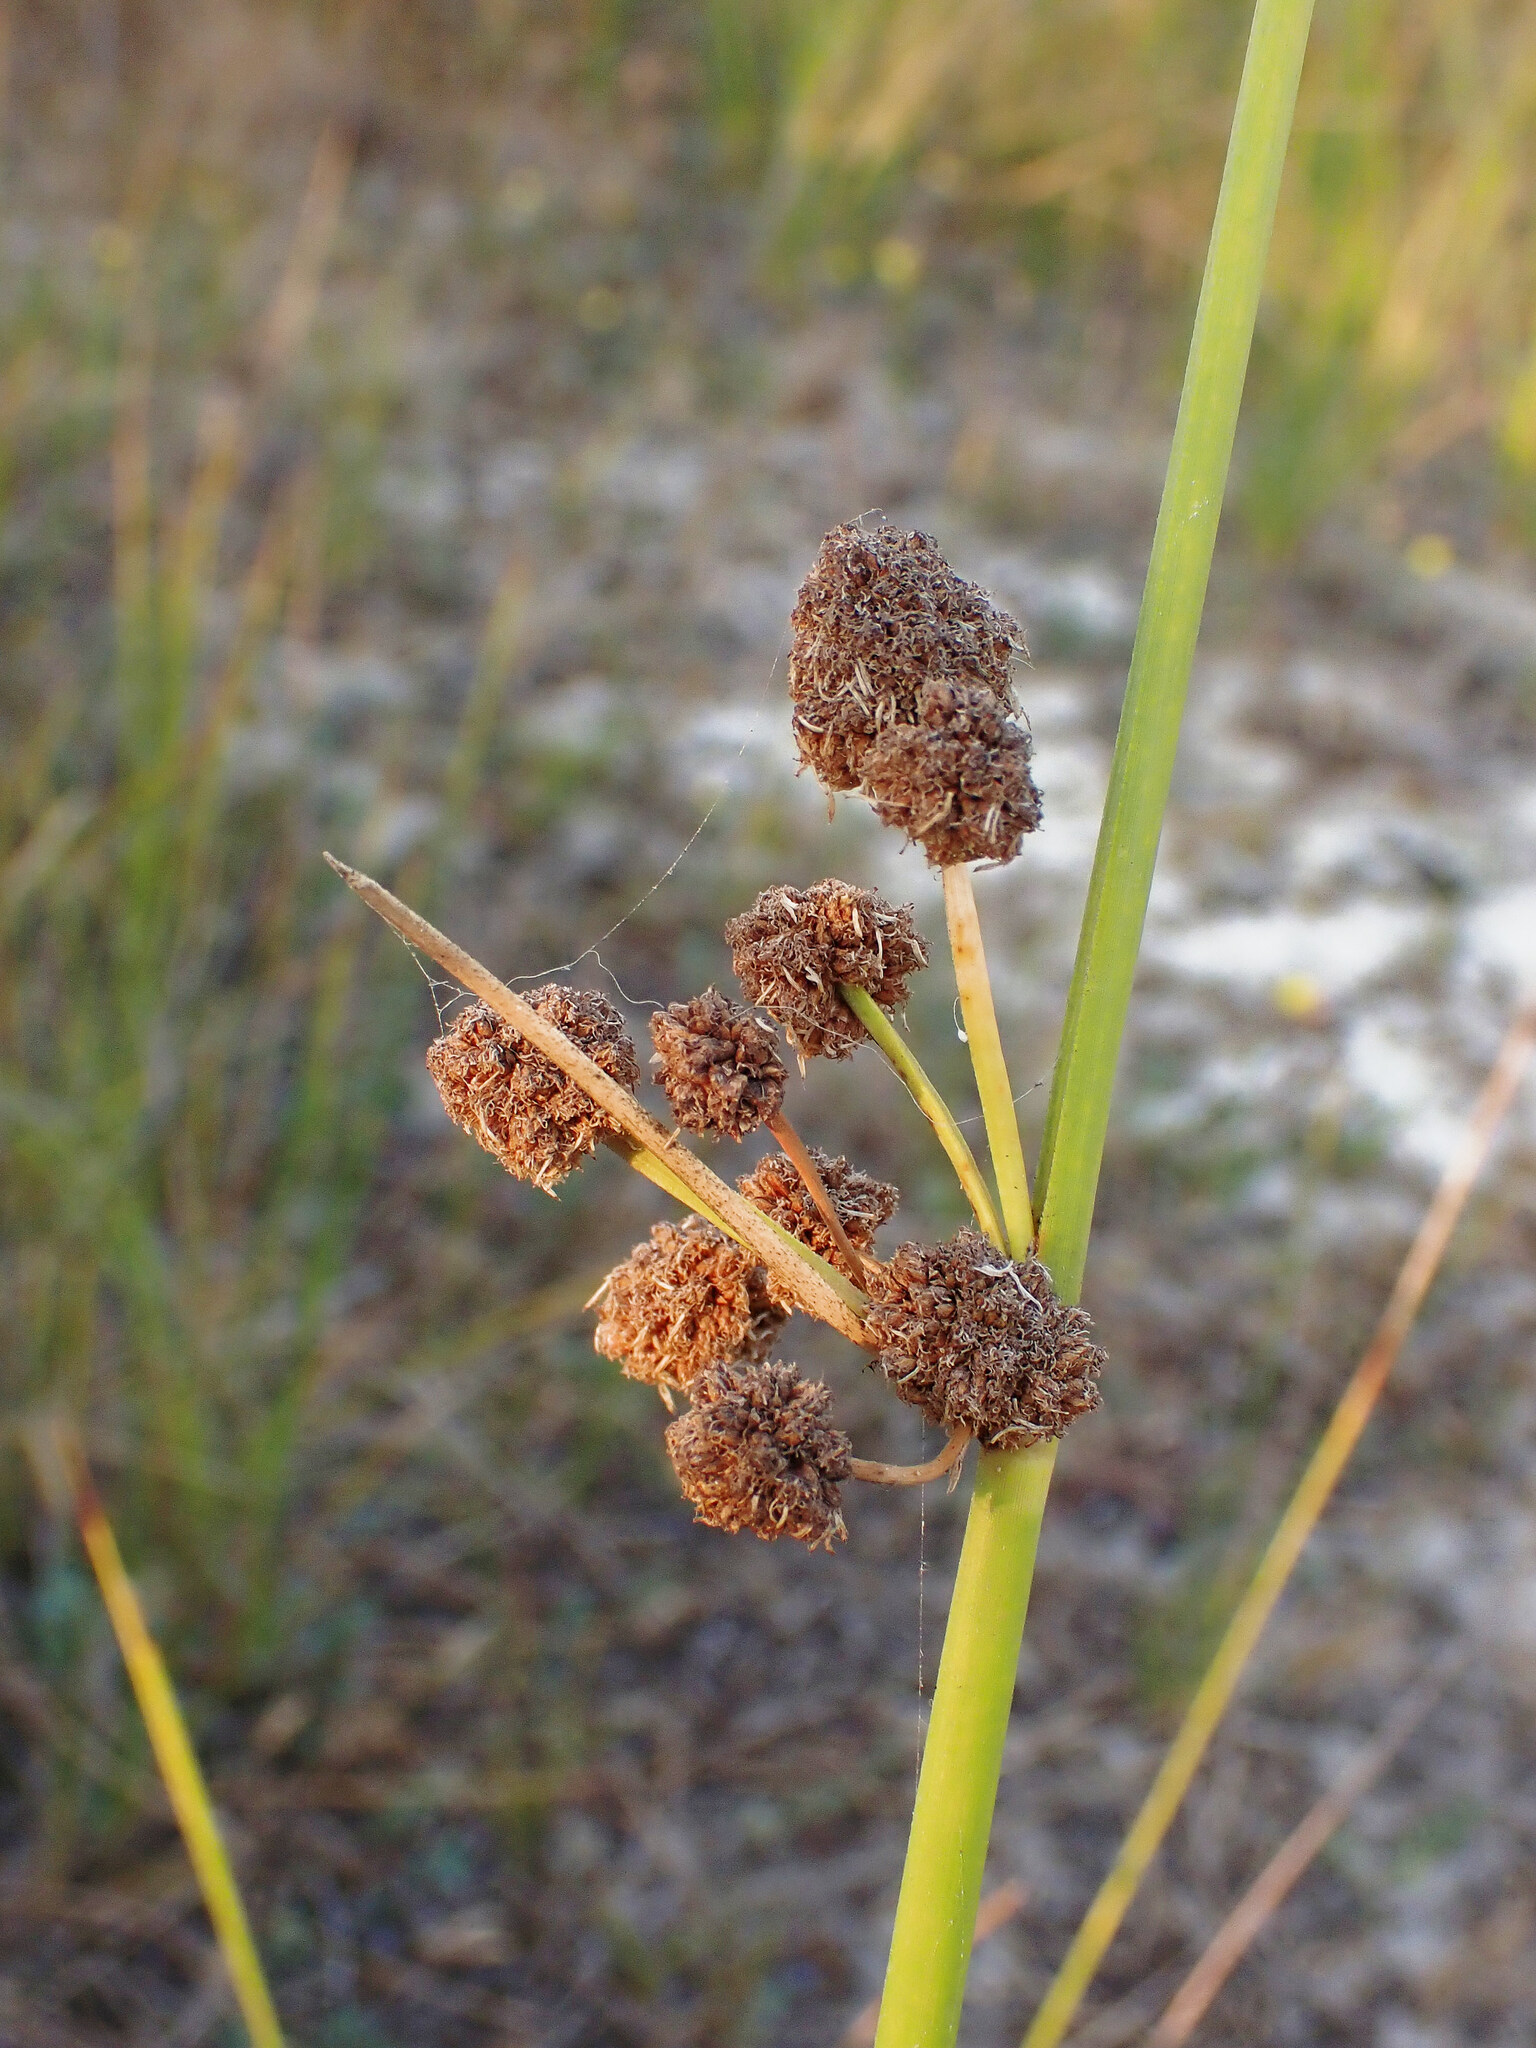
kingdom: Plantae
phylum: Tracheophyta
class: Liliopsida
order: Poales
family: Cyperaceae
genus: Scirpoides
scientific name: Scirpoides holoschoenus
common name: Round-headed club-rush
